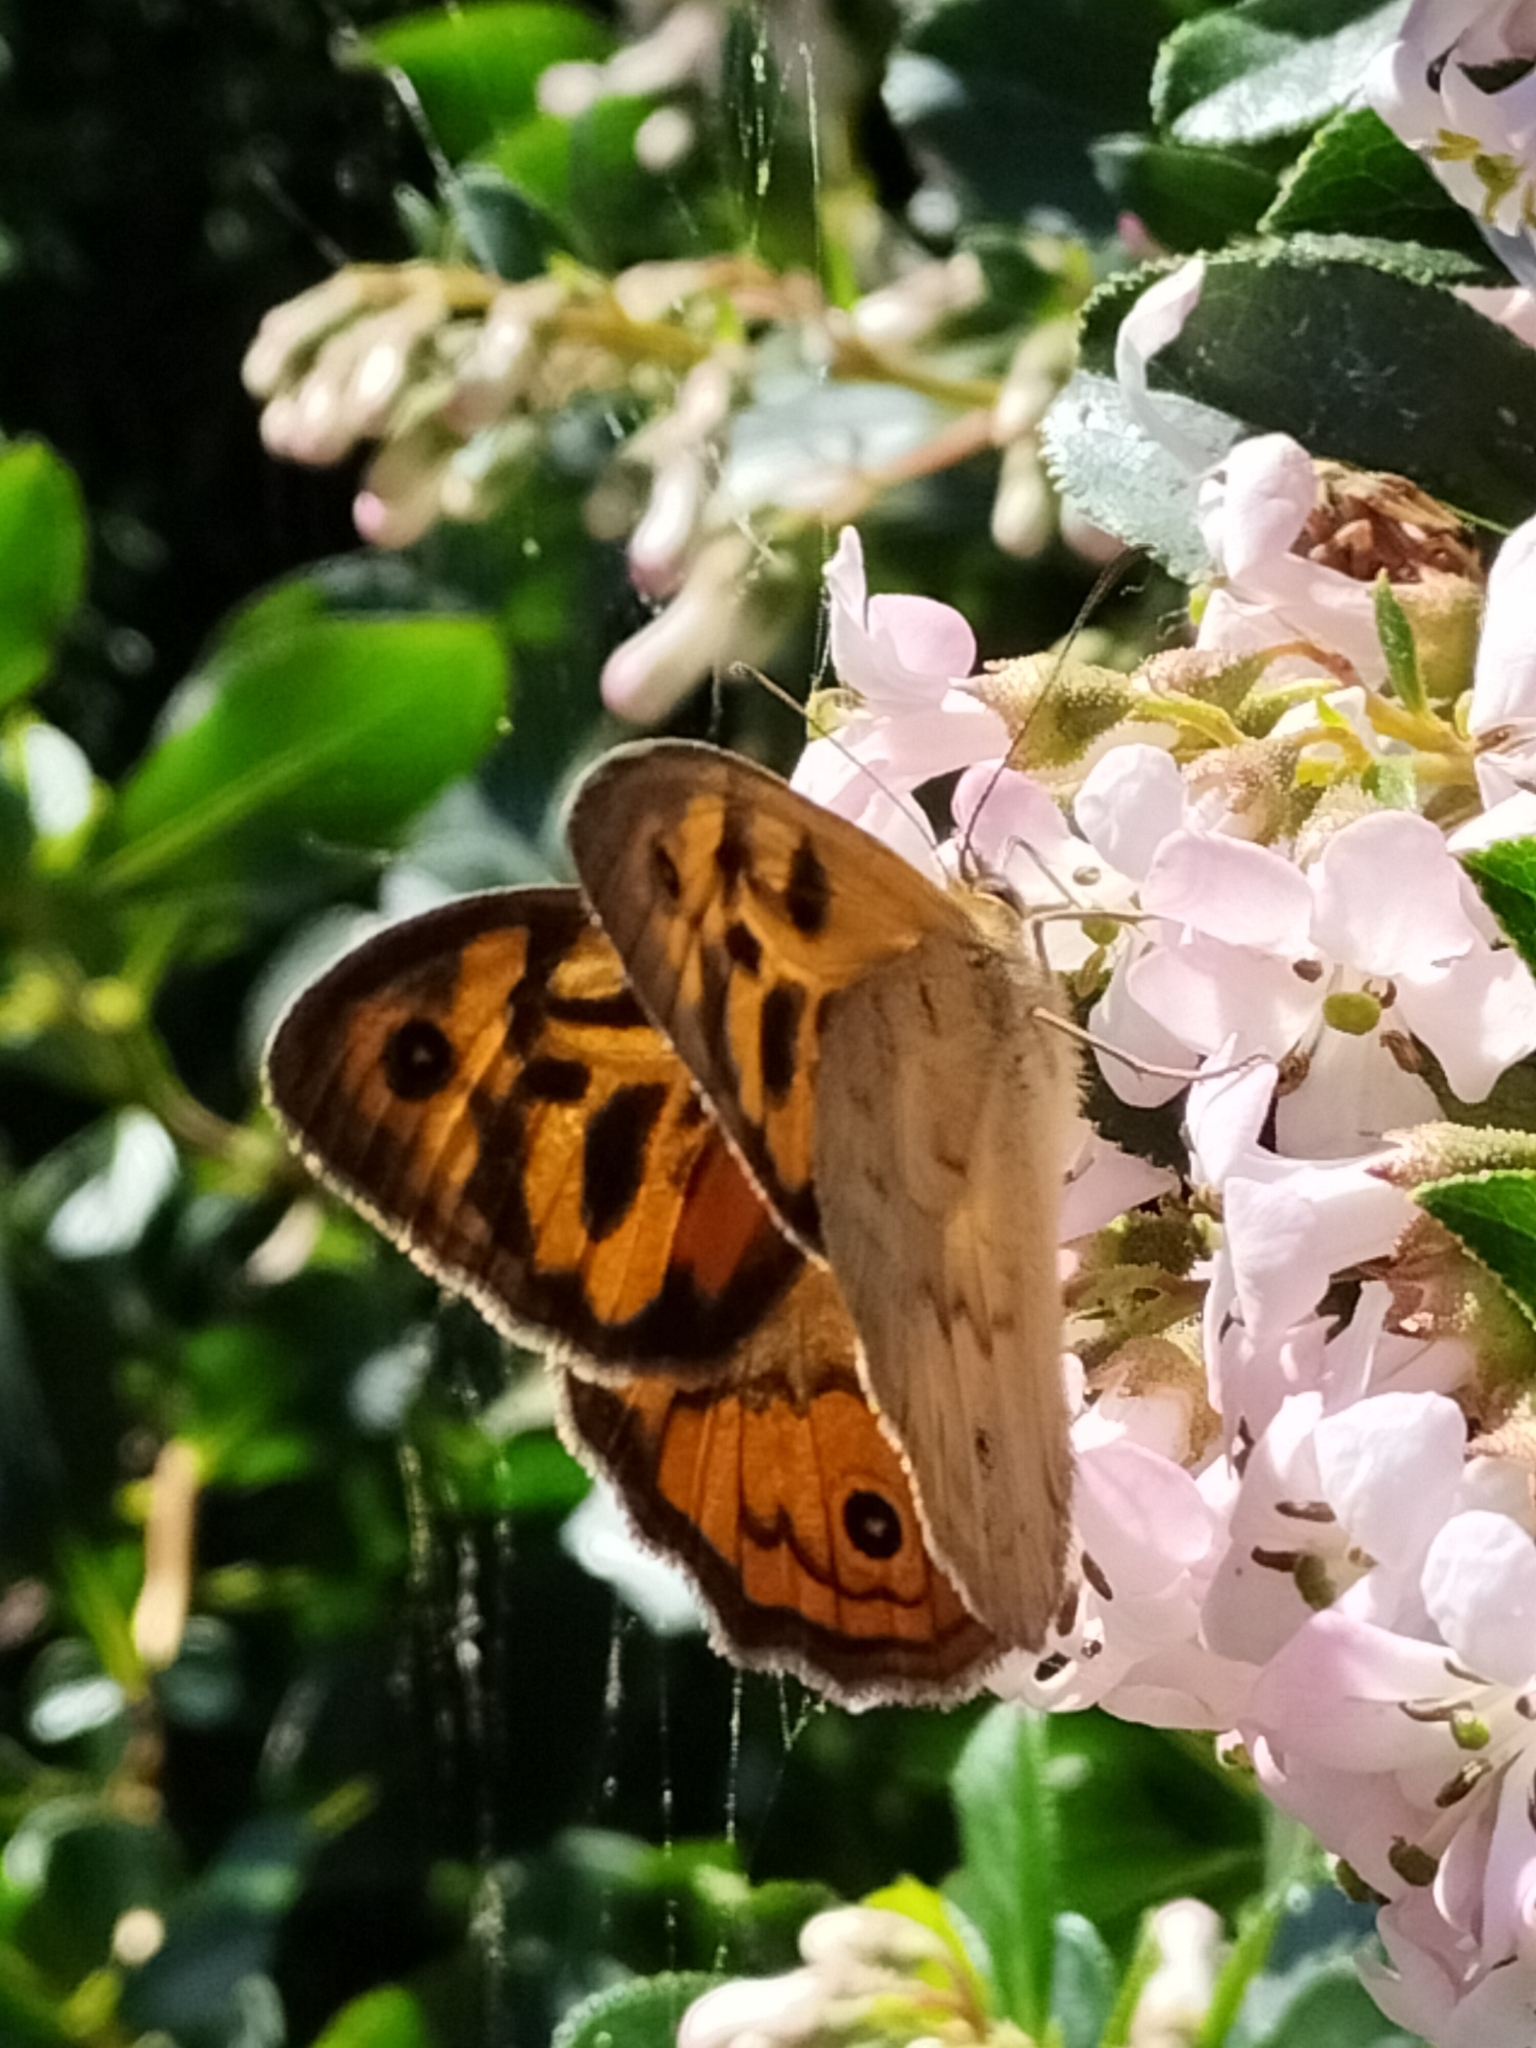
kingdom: Animalia
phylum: Arthropoda
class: Insecta
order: Lepidoptera
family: Nymphalidae
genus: Heteronympha
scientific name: Heteronympha merope
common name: Common brown
